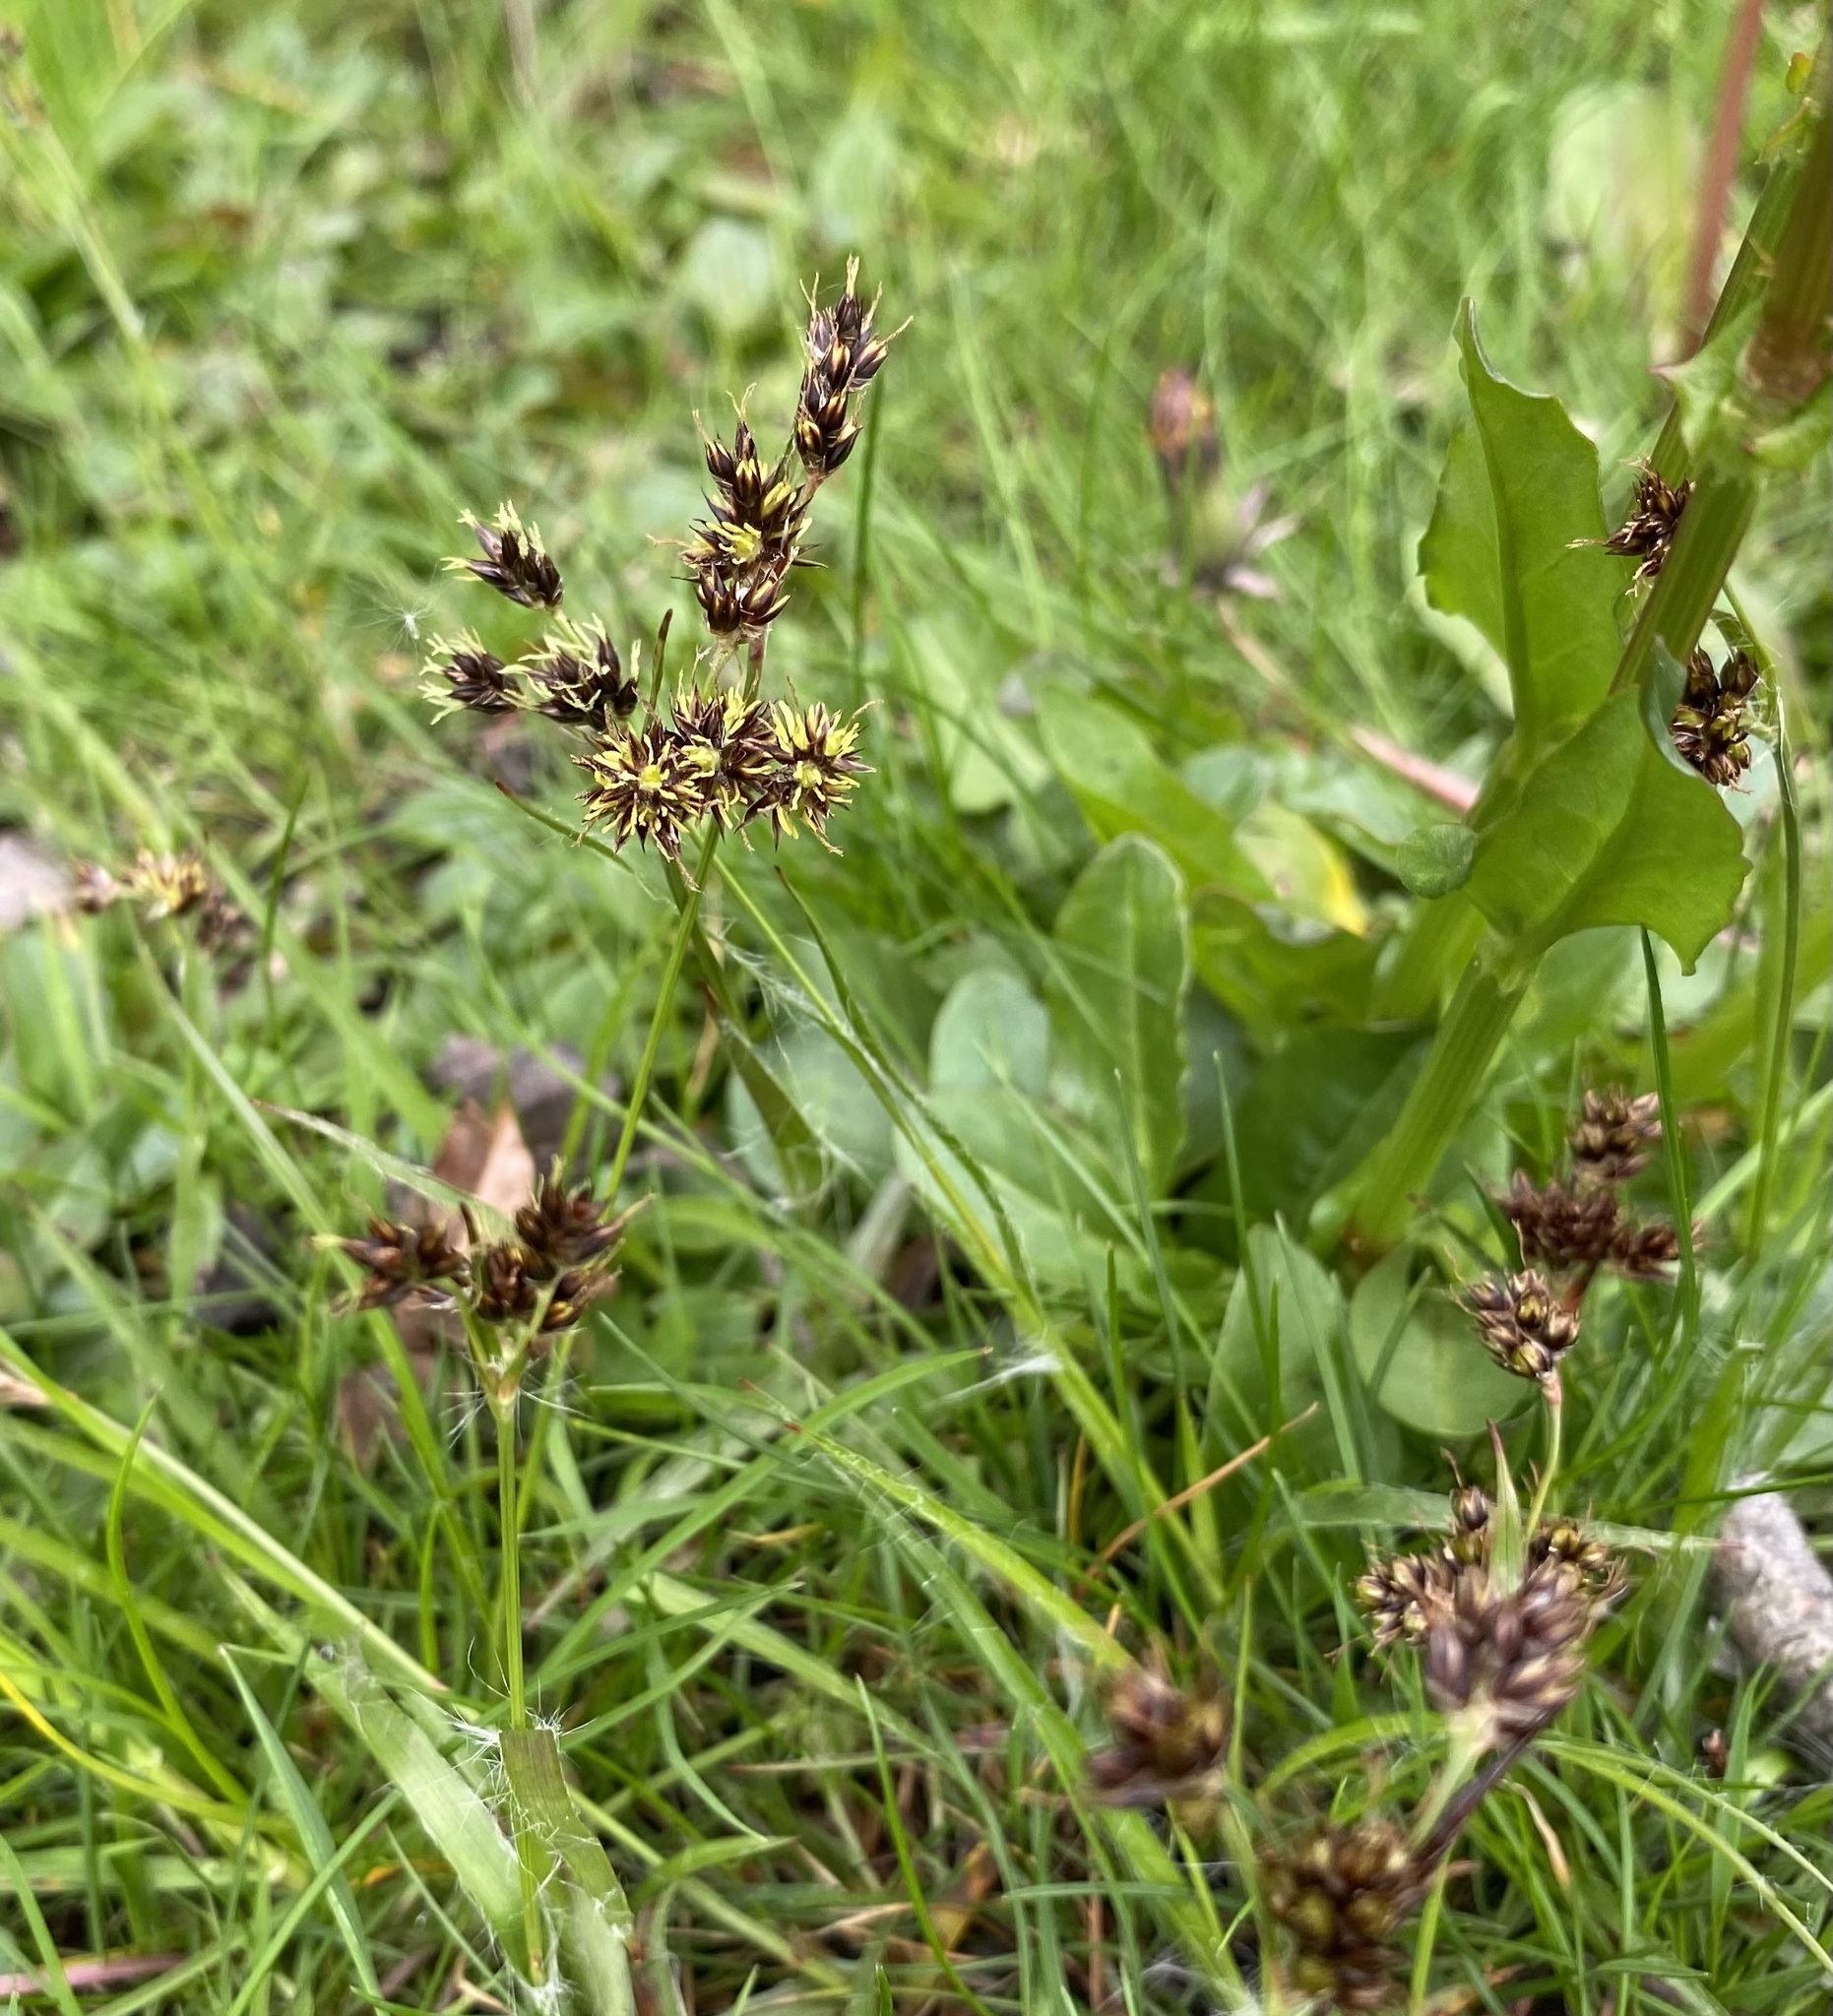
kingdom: Plantae
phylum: Tracheophyta
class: Liliopsida
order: Poales
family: Juncaceae
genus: Luzula
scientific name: Luzula campestris
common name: Field wood-rush
